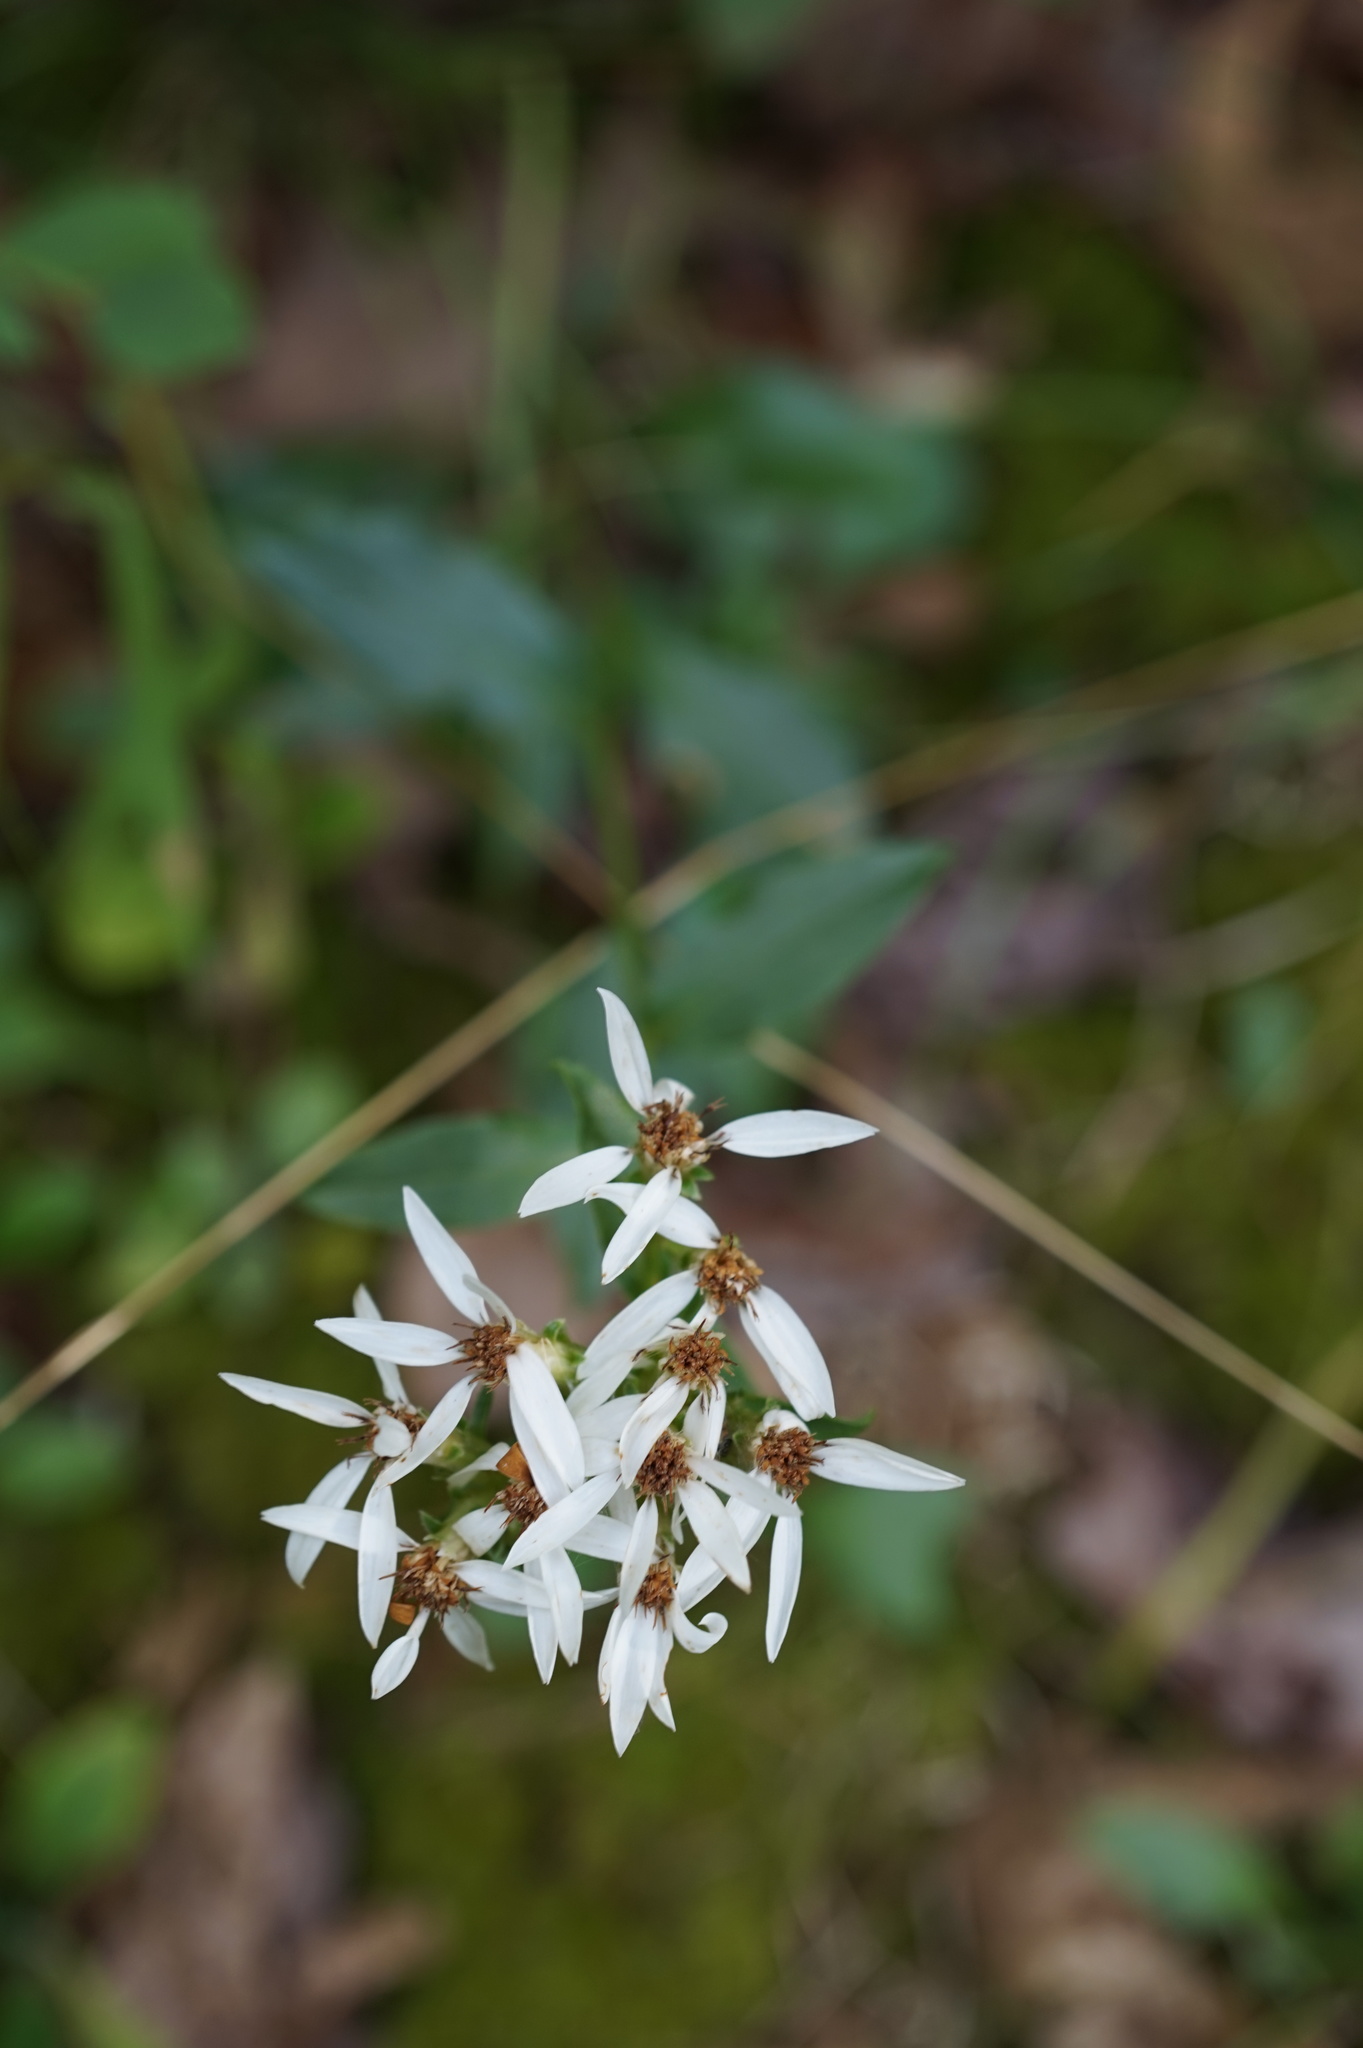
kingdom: Plantae
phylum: Tracheophyta
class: Magnoliopsida
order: Asterales
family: Asteraceae
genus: Sericocarpus
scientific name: Sericocarpus asteroides
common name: Toothed white-top aster
